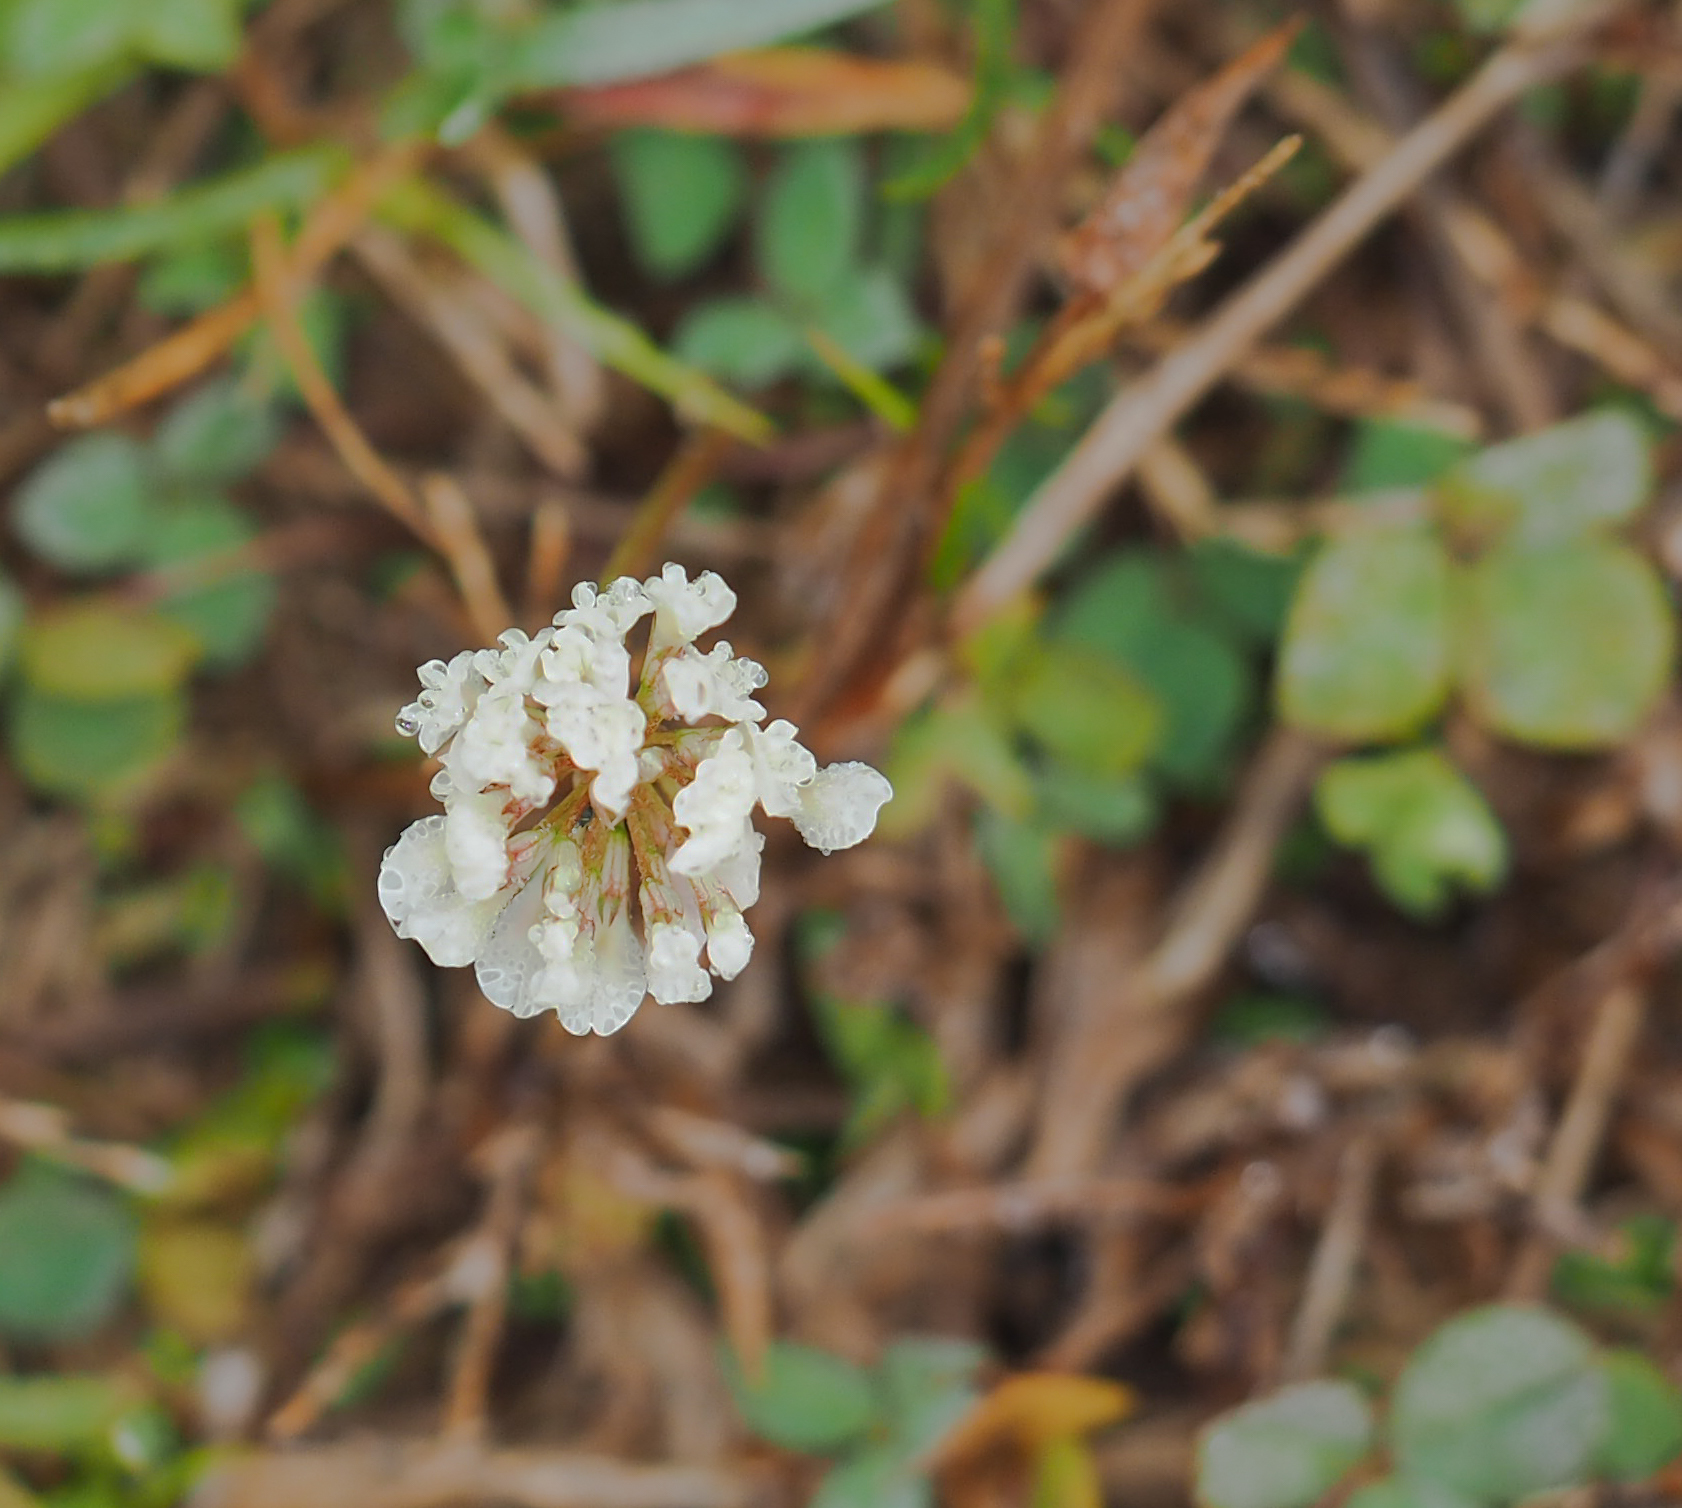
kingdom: Plantae
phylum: Tracheophyta
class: Magnoliopsida
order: Fabales
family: Fabaceae
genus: Trifolium
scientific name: Trifolium repens
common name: White clover
